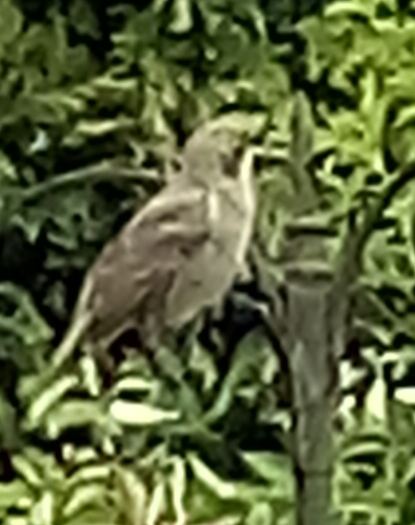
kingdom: Animalia
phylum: Chordata
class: Aves
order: Passeriformes
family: Sturnidae
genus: Sturnus
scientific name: Sturnus vulgaris
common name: Common starling
